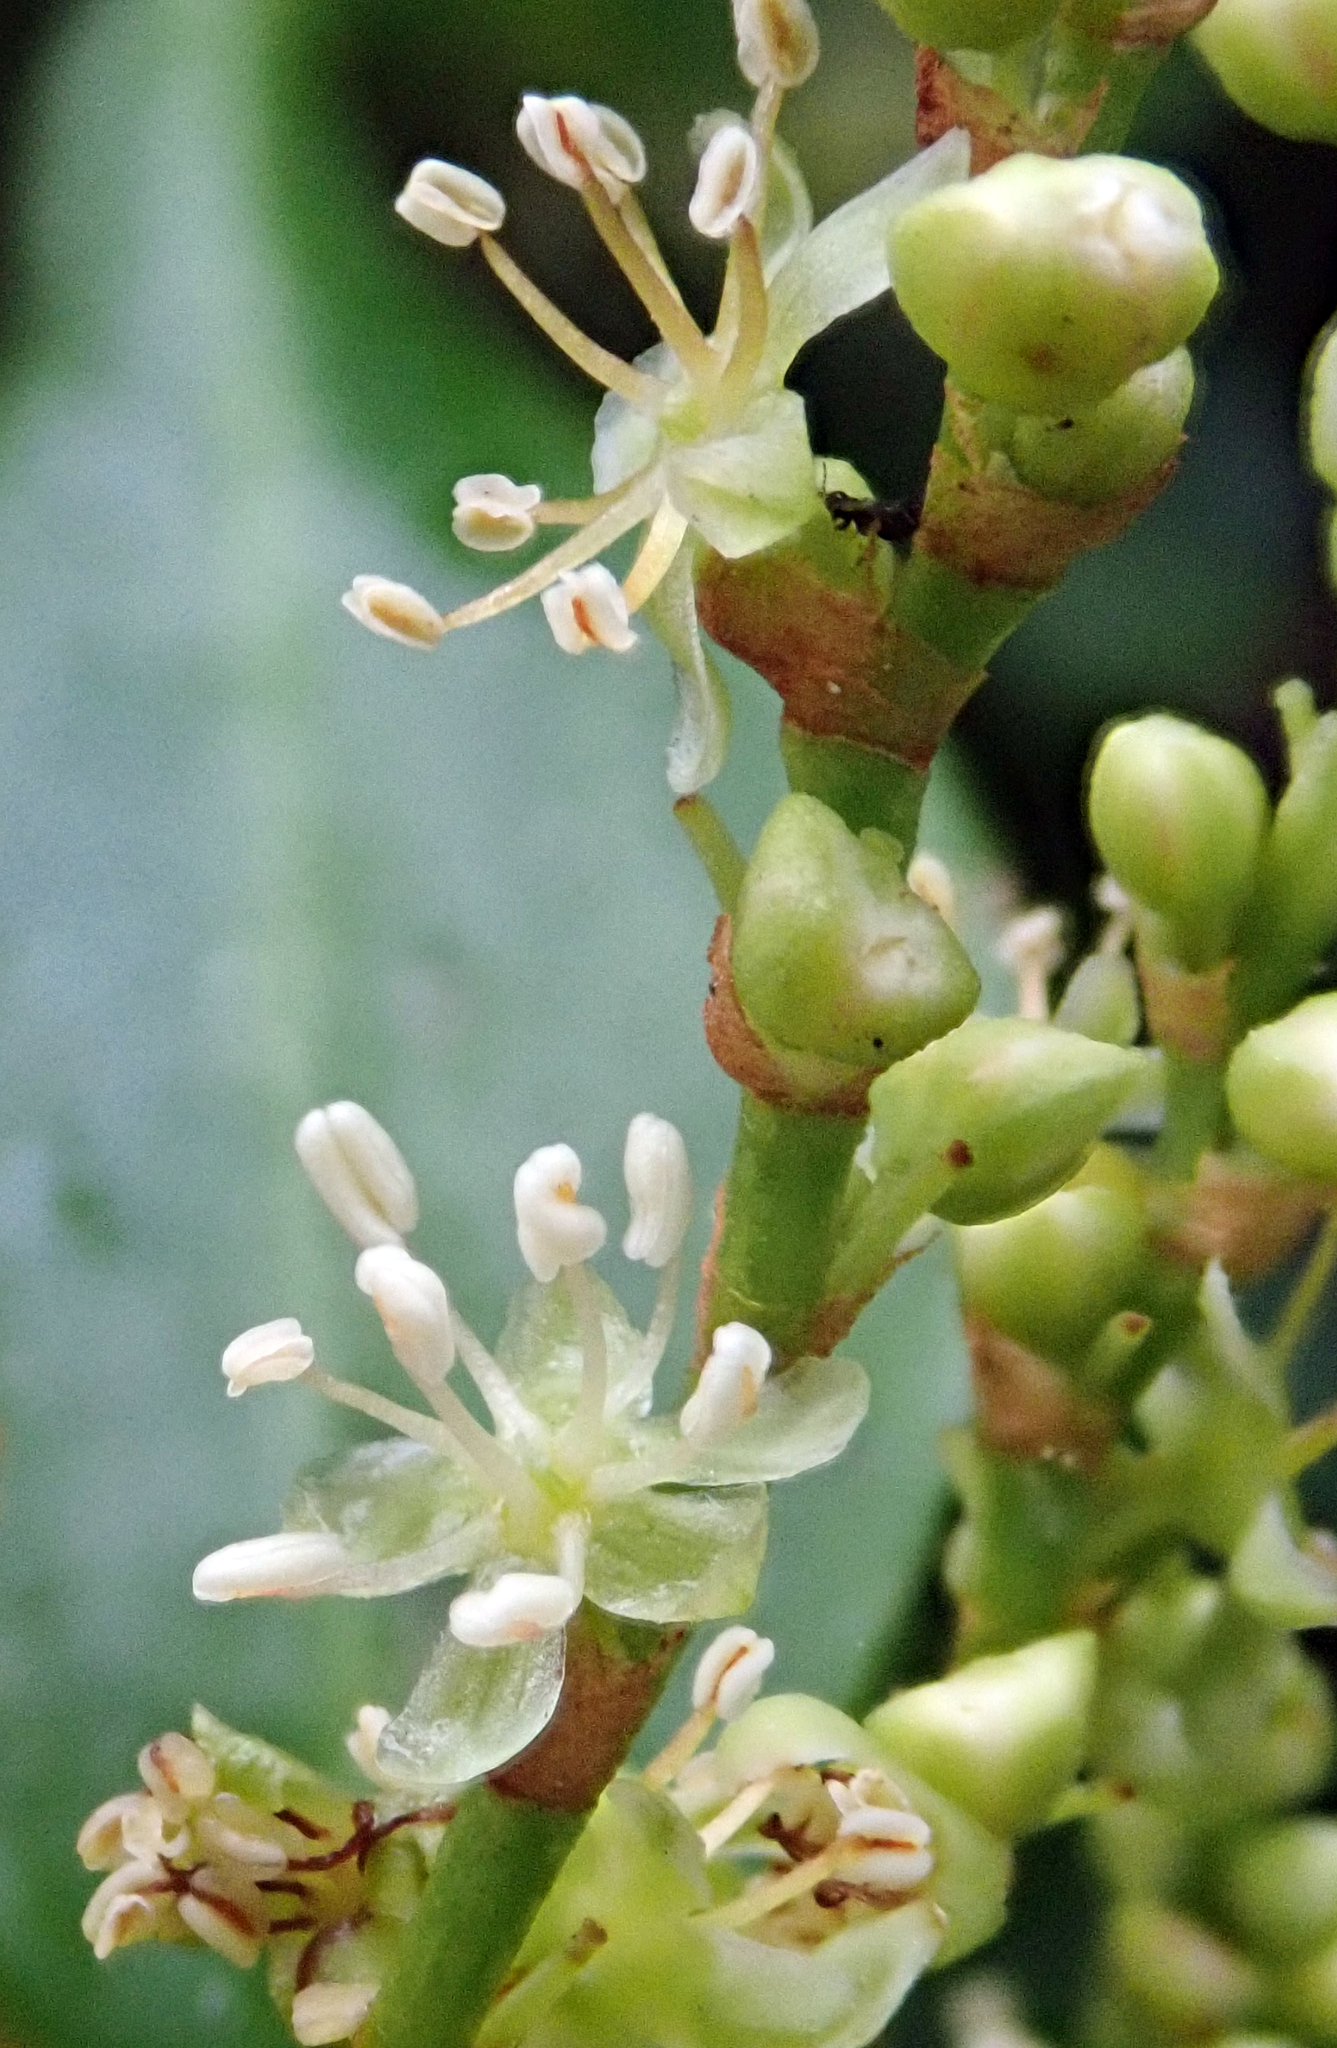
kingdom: Plantae
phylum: Tracheophyta
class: Magnoliopsida
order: Caryophyllales
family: Polygonaceae
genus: Muehlenbeckia
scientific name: Muehlenbeckia australis
